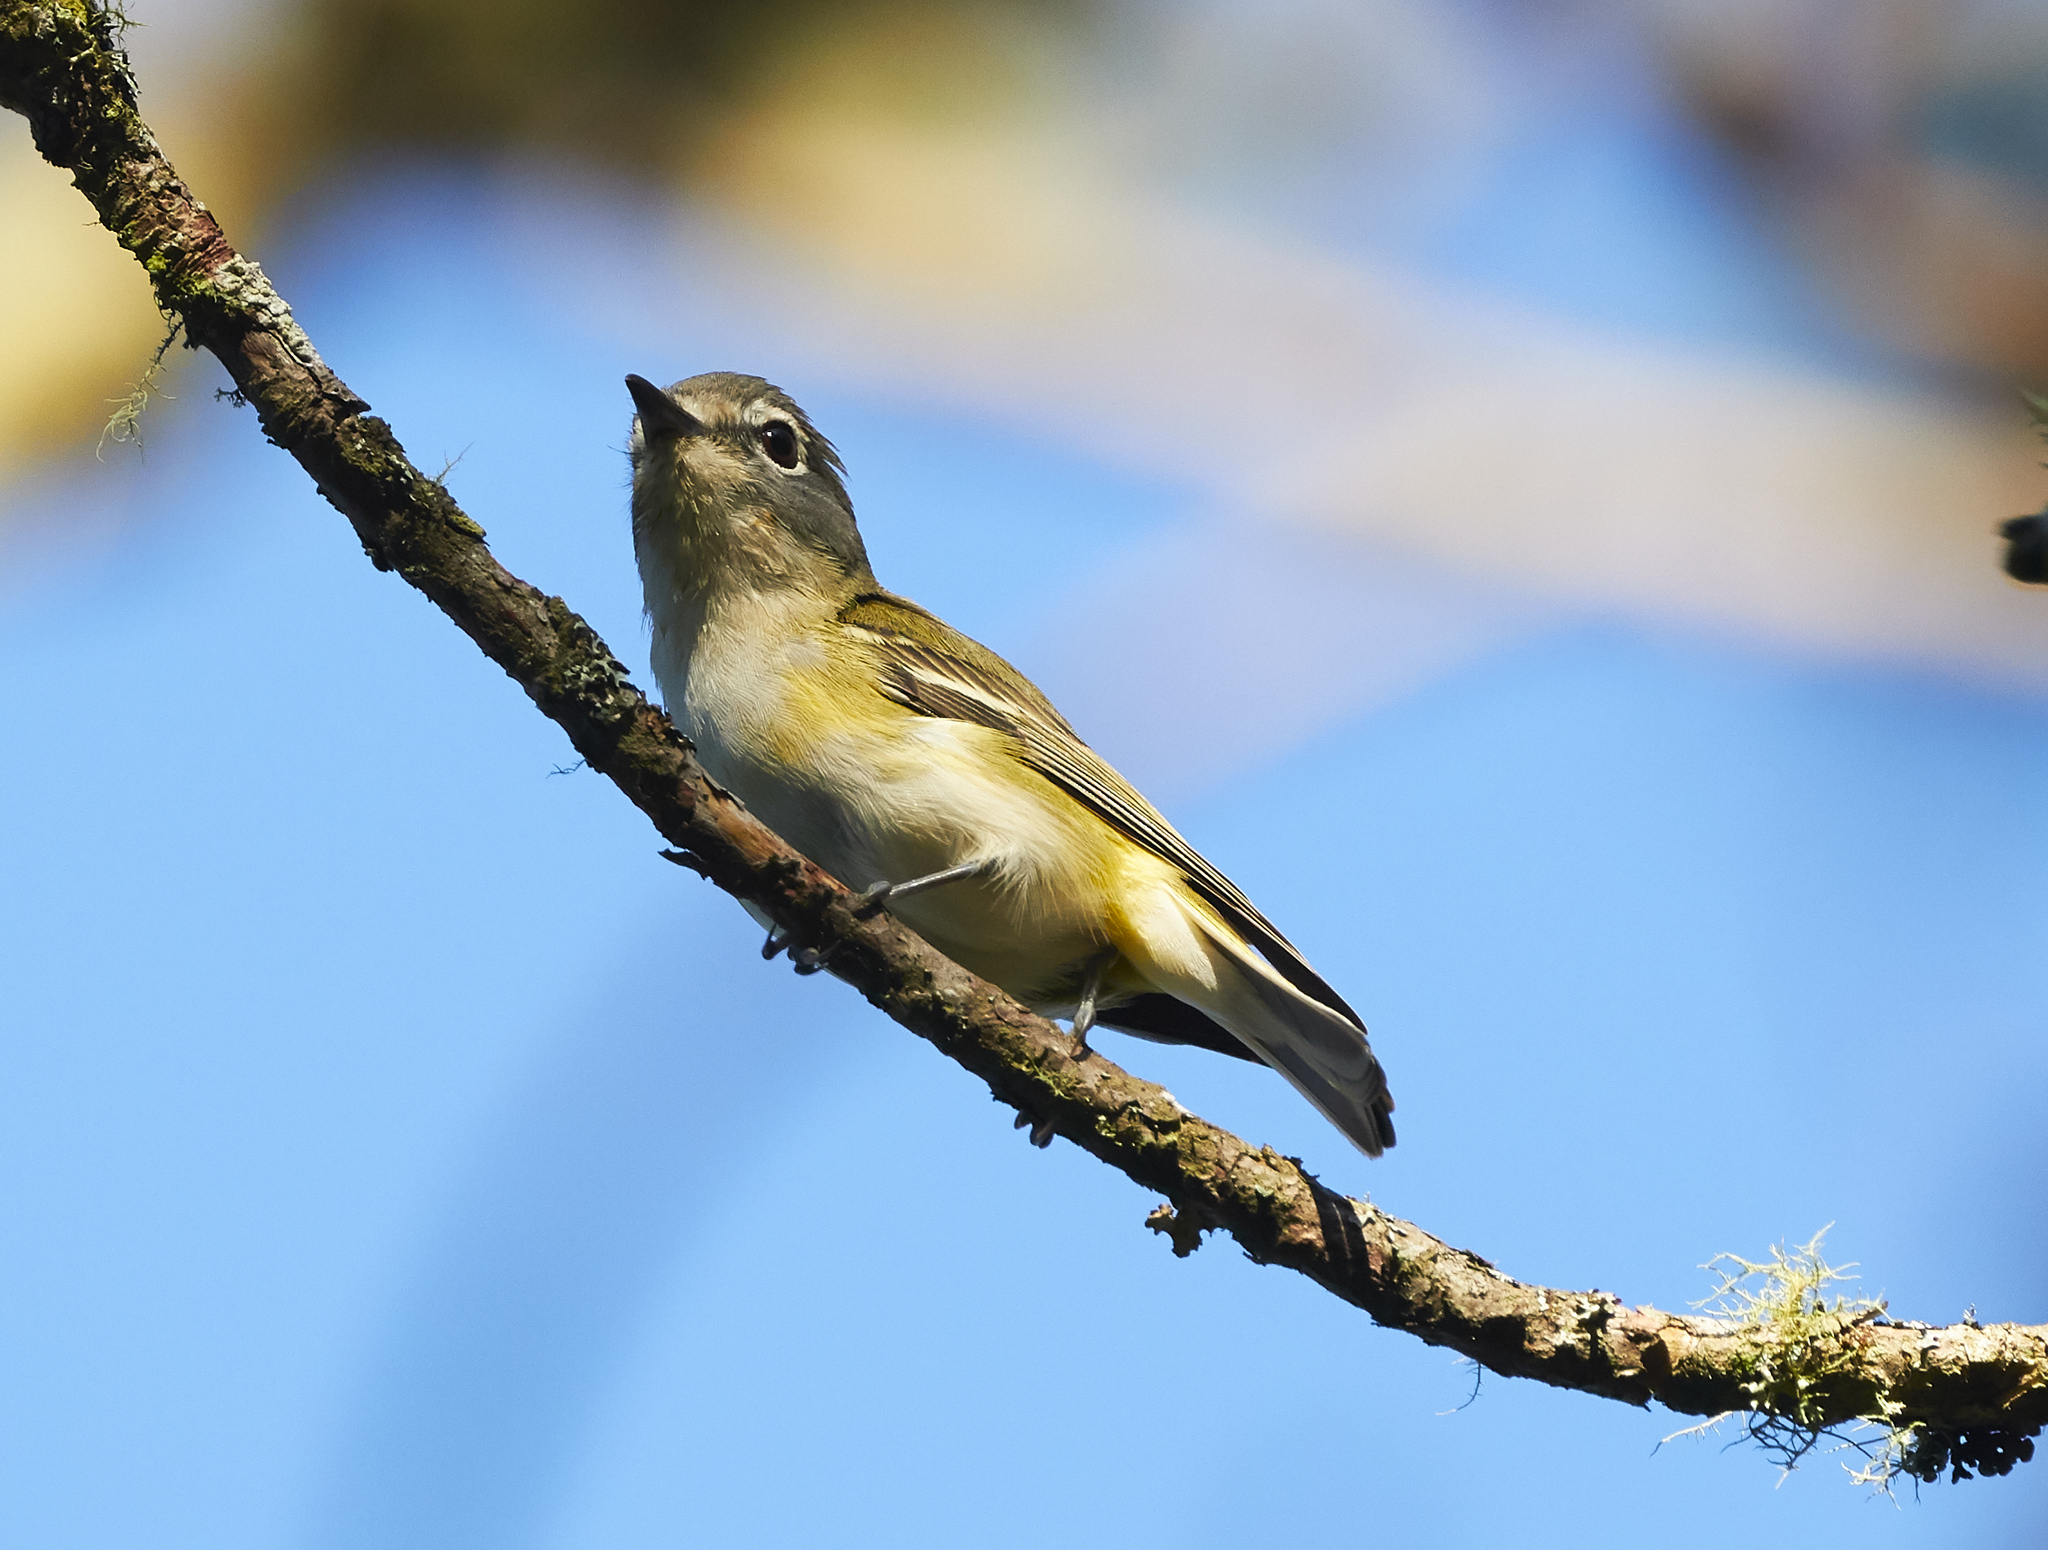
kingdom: Animalia
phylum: Chordata
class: Aves
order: Passeriformes
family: Vireonidae
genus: Vireo
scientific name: Vireo solitarius
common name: Blue-headed vireo
